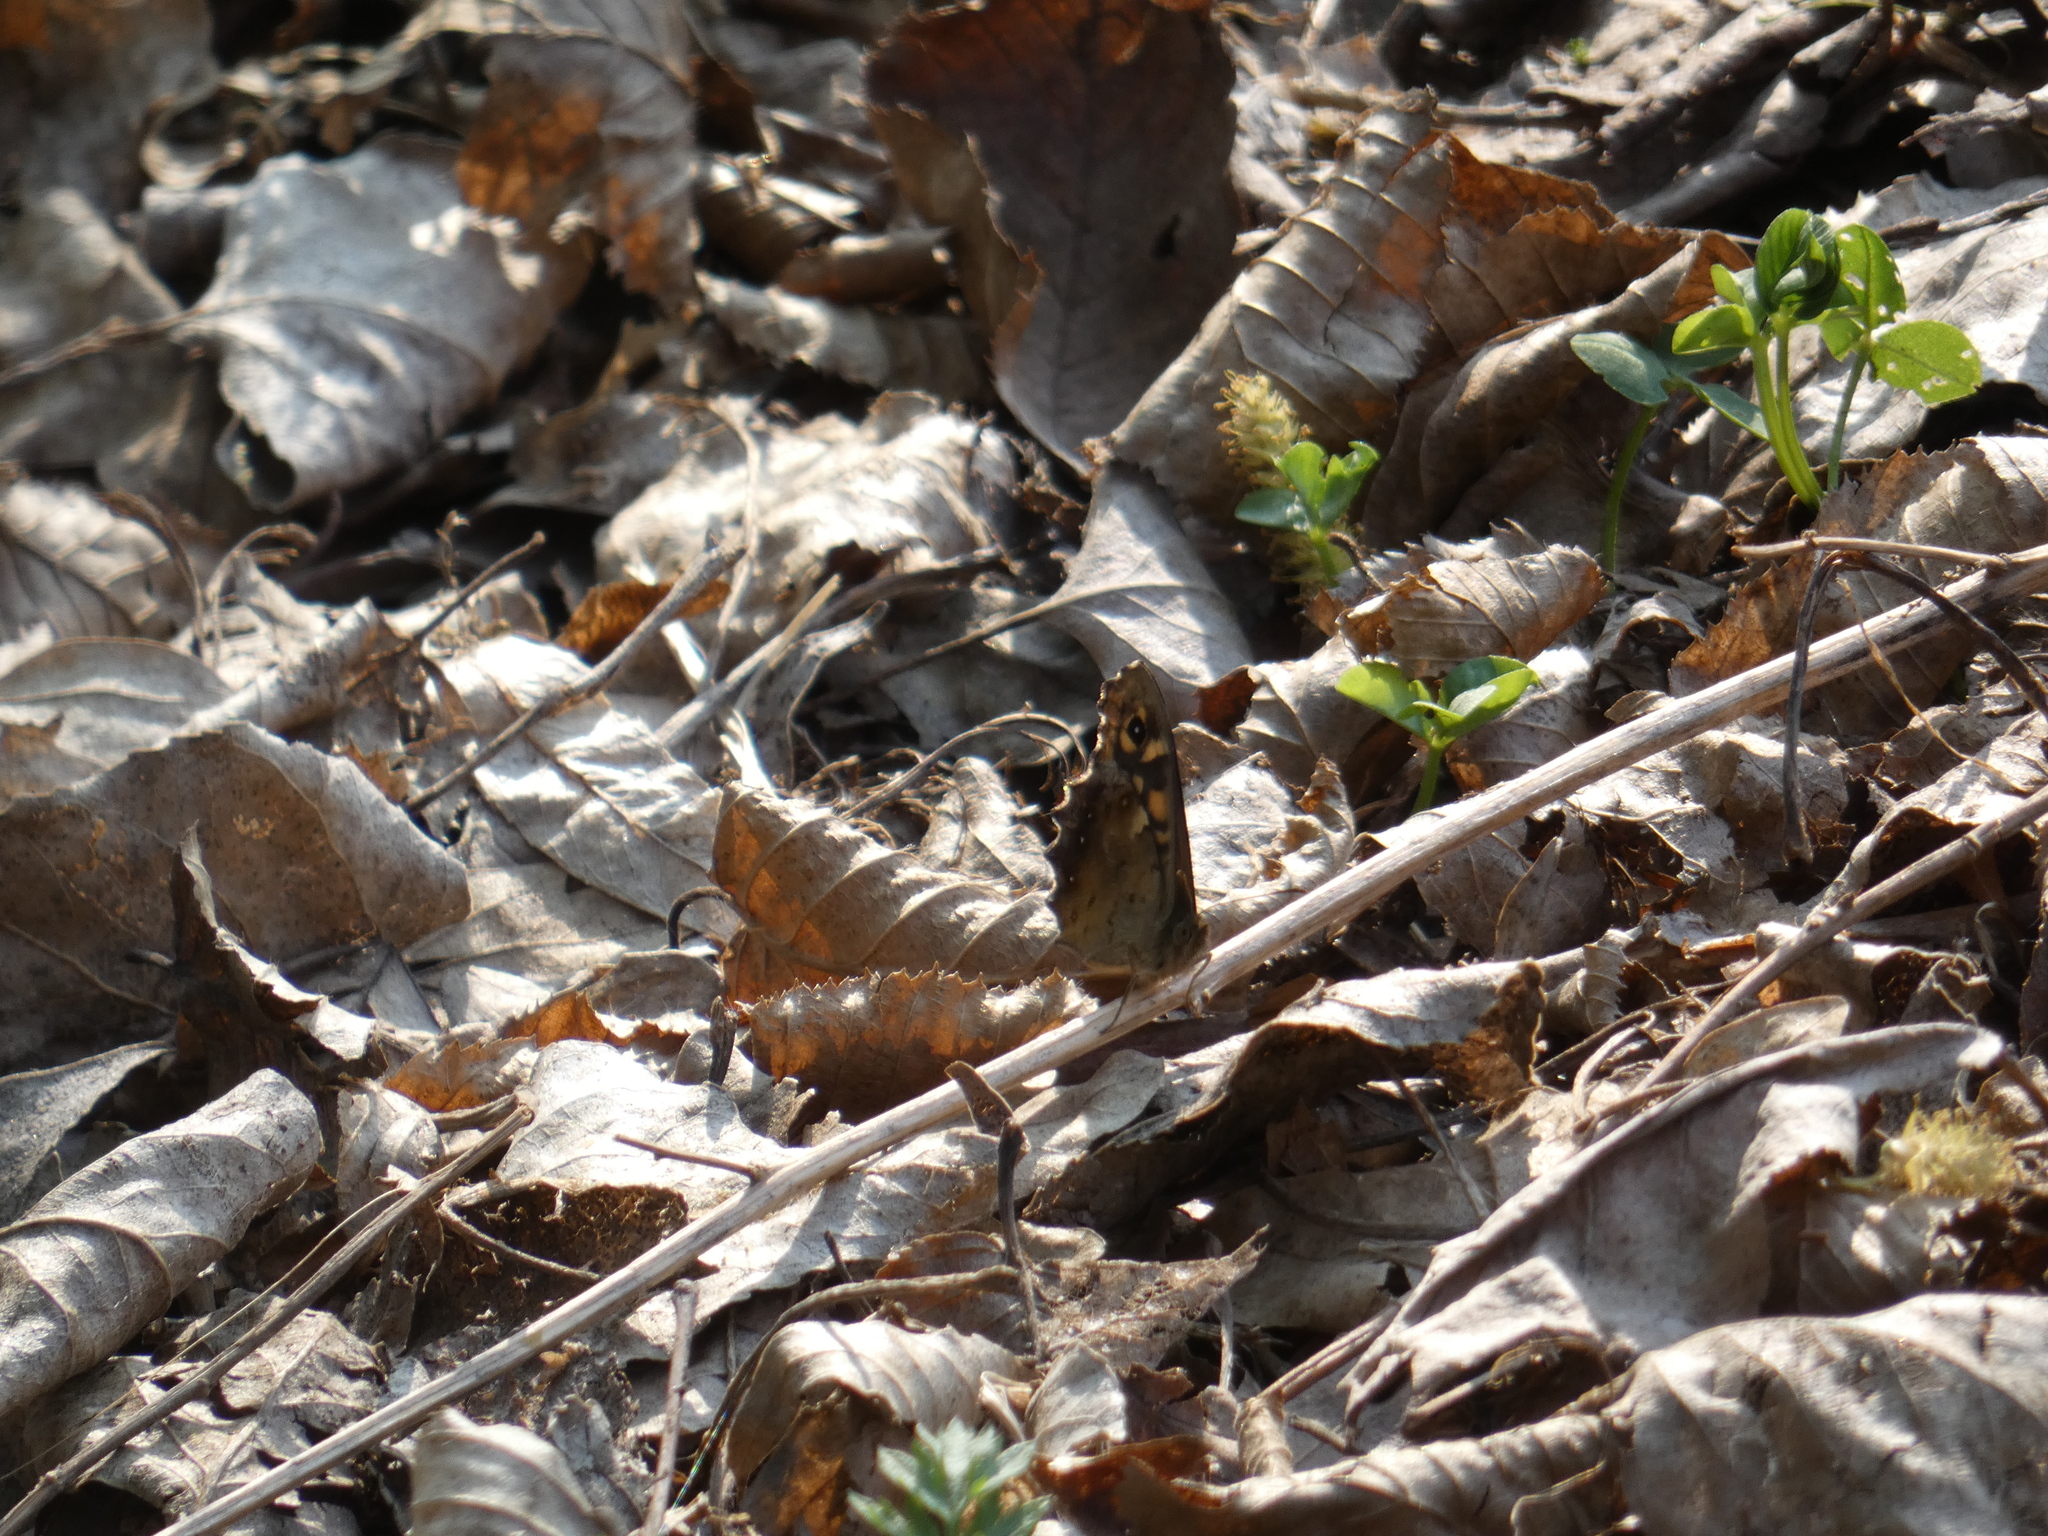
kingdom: Animalia
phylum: Arthropoda
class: Insecta
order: Lepidoptera
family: Nymphalidae
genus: Pararge
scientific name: Pararge aegeria
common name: Speckled wood
